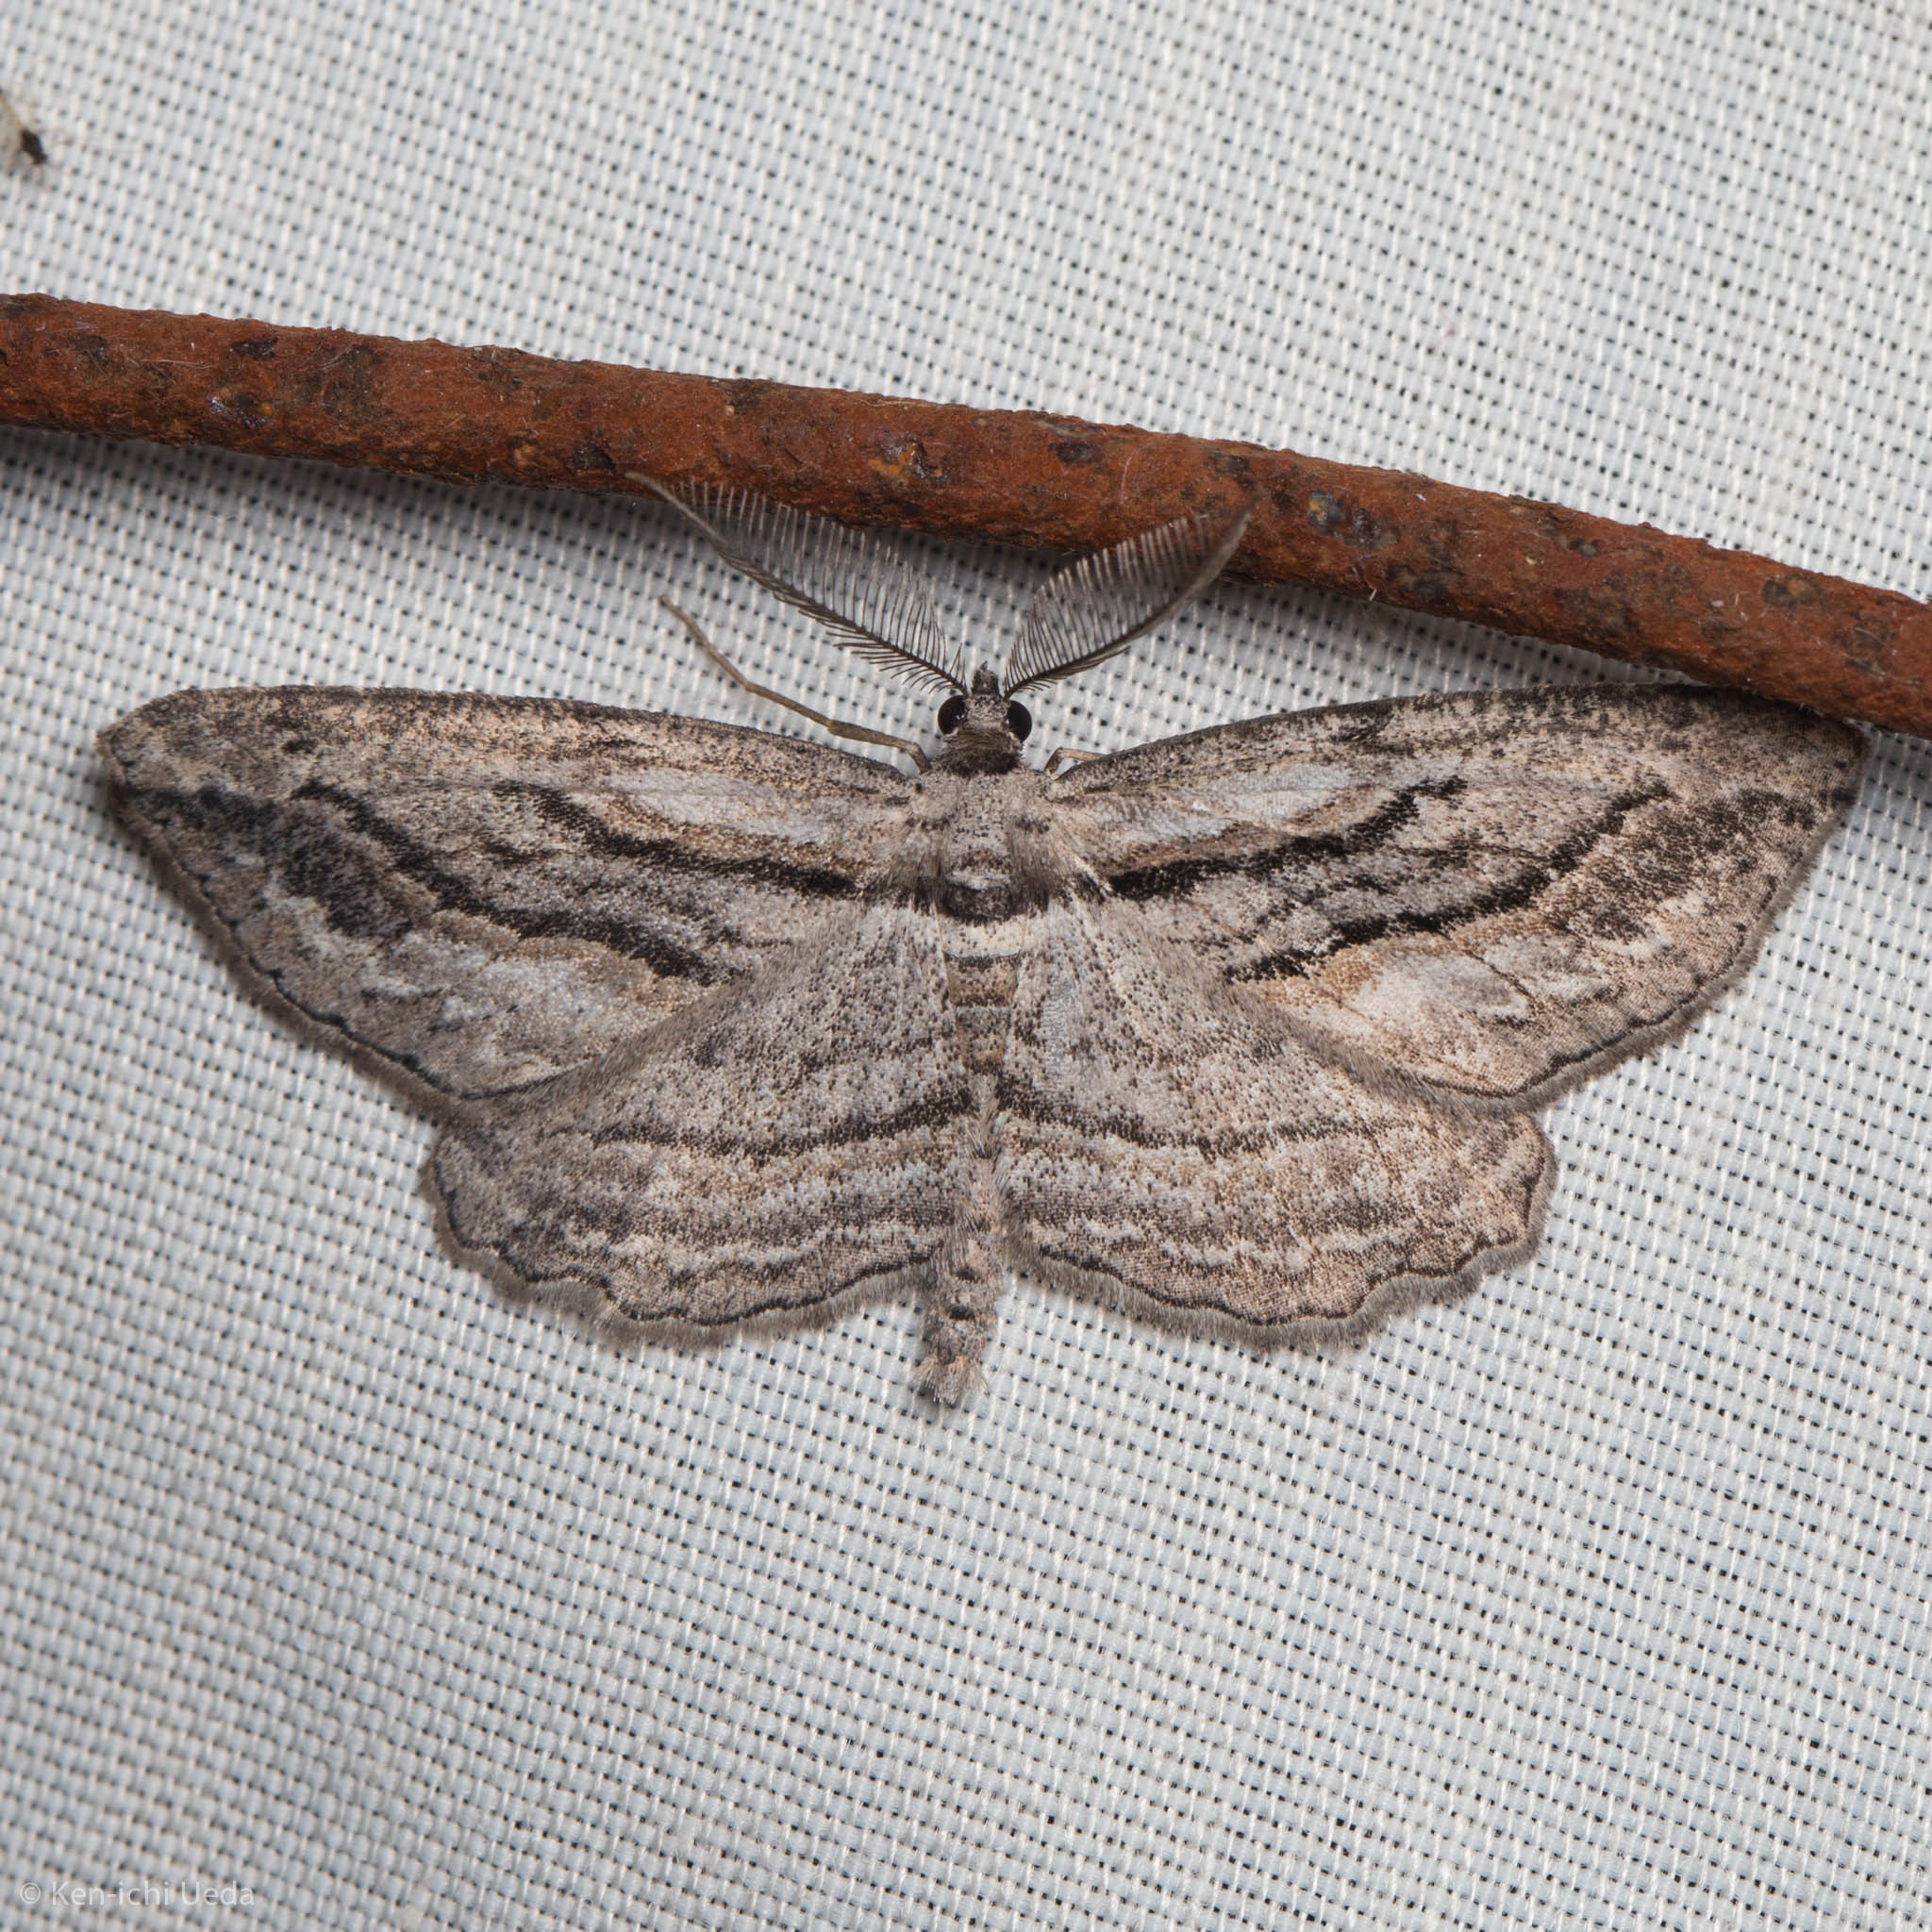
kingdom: Animalia
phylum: Arthropoda
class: Insecta
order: Lepidoptera
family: Geometridae
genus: Pterotaea
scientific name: Pterotaea lamiaria
